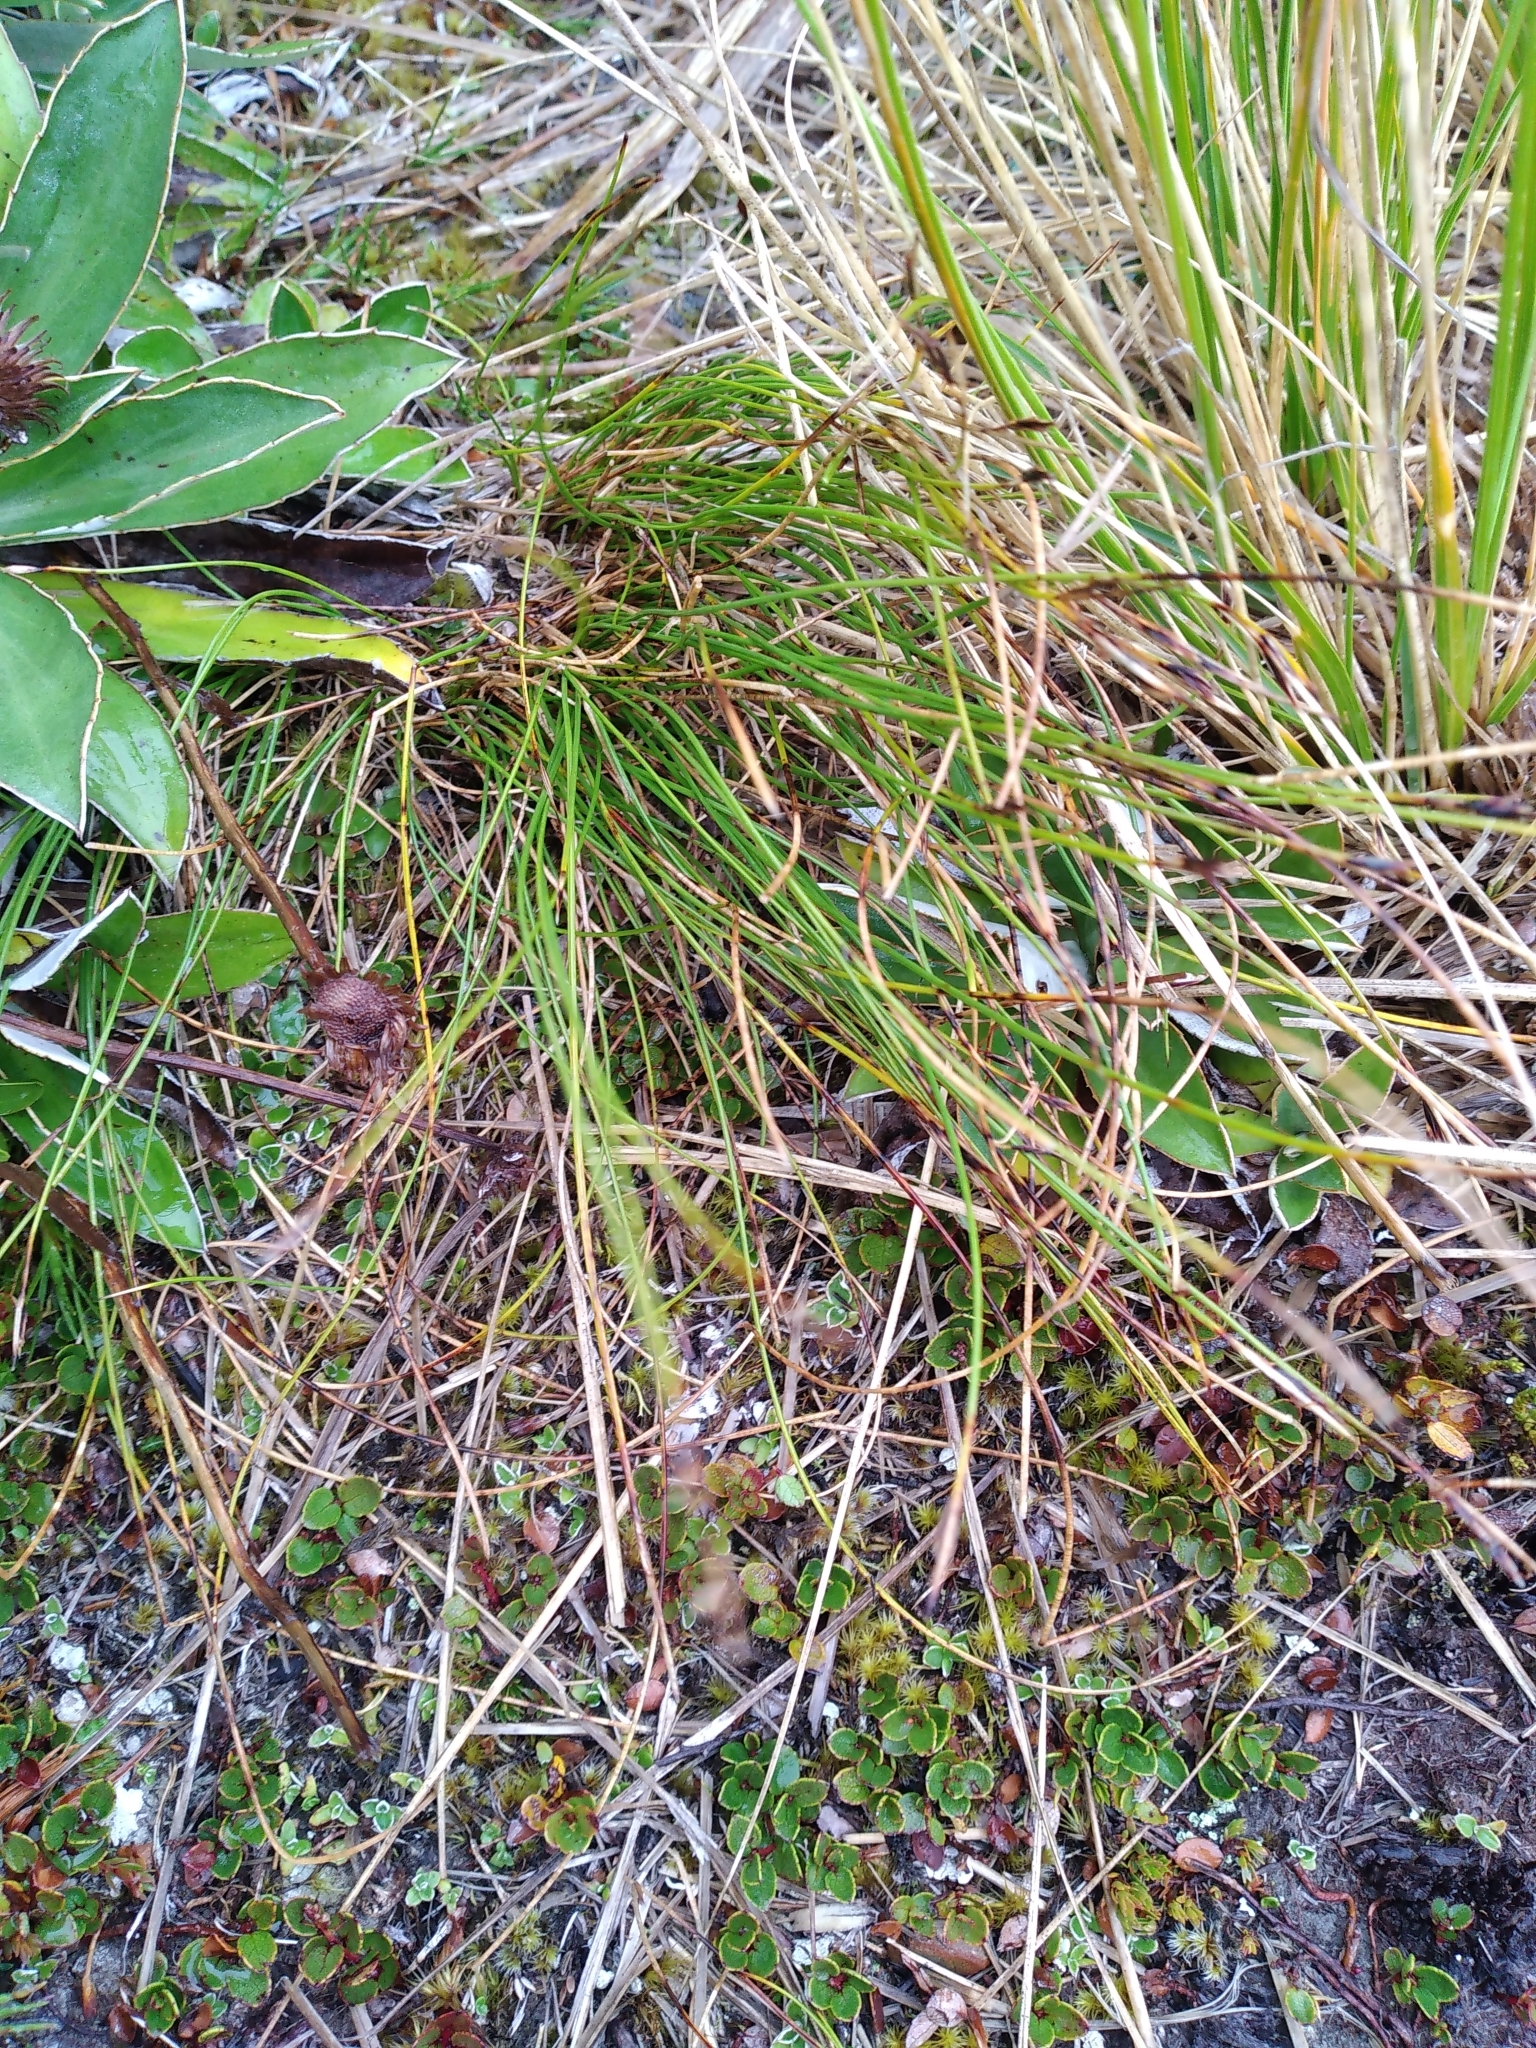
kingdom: Plantae
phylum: Tracheophyta
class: Liliopsida
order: Poales
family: Cyperaceae
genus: Schoenus
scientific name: Schoenus pauciflorus
